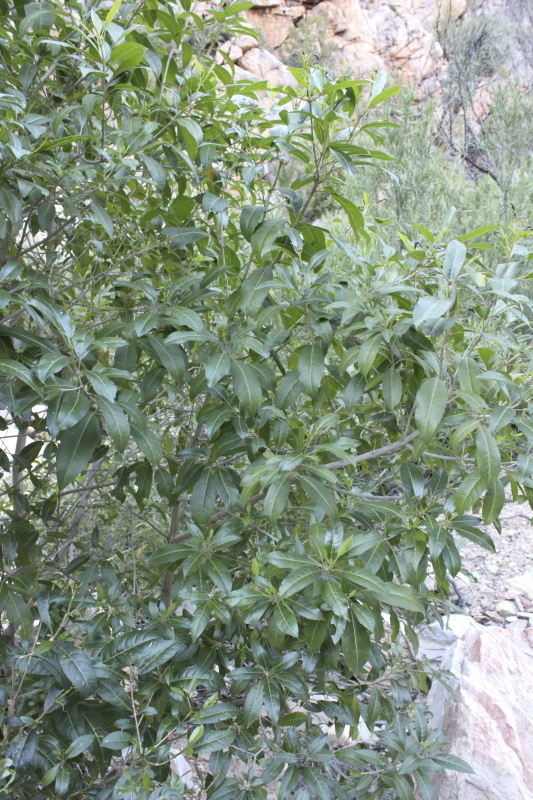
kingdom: Plantae
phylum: Tracheophyta
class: Magnoliopsida
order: Lamiales
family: Stilbaceae
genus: Nuxia
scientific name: Nuxia floribunda
